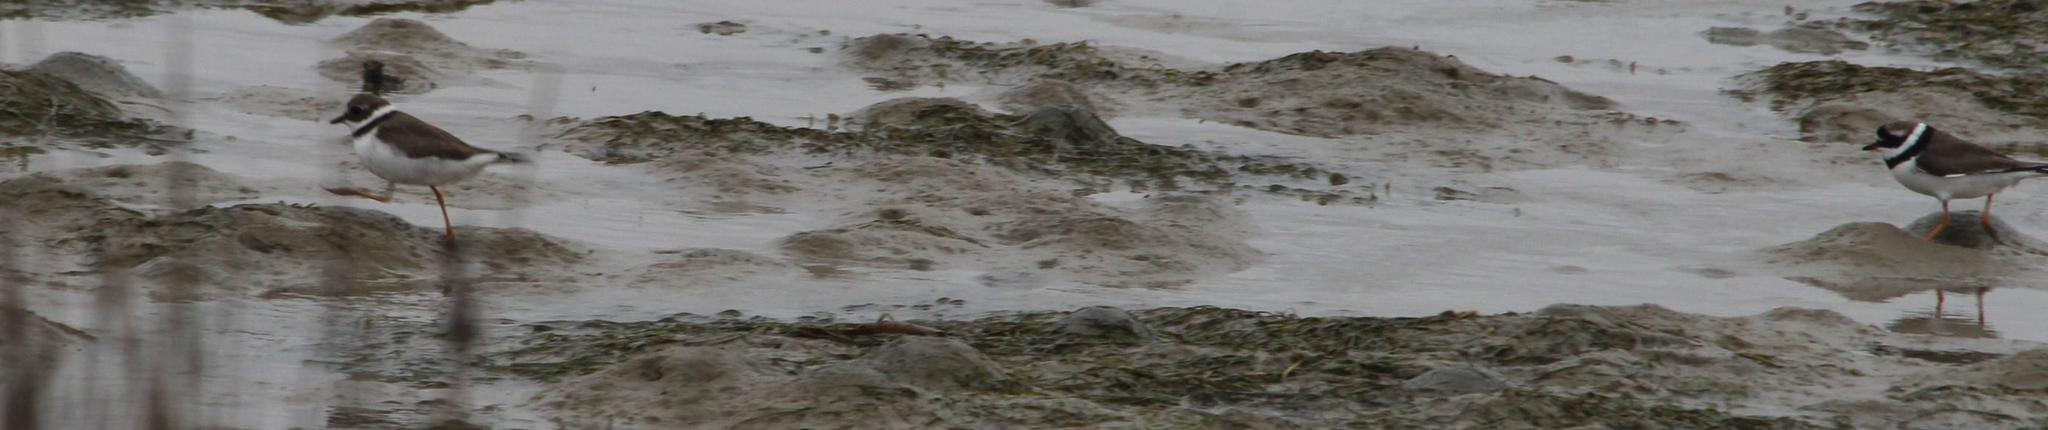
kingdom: Animalia
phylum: Chordata
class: Aves
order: Charadriiformes
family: Charadriidae
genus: Charadrius
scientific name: Charadrius hiaticula
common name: Common ringed plover
